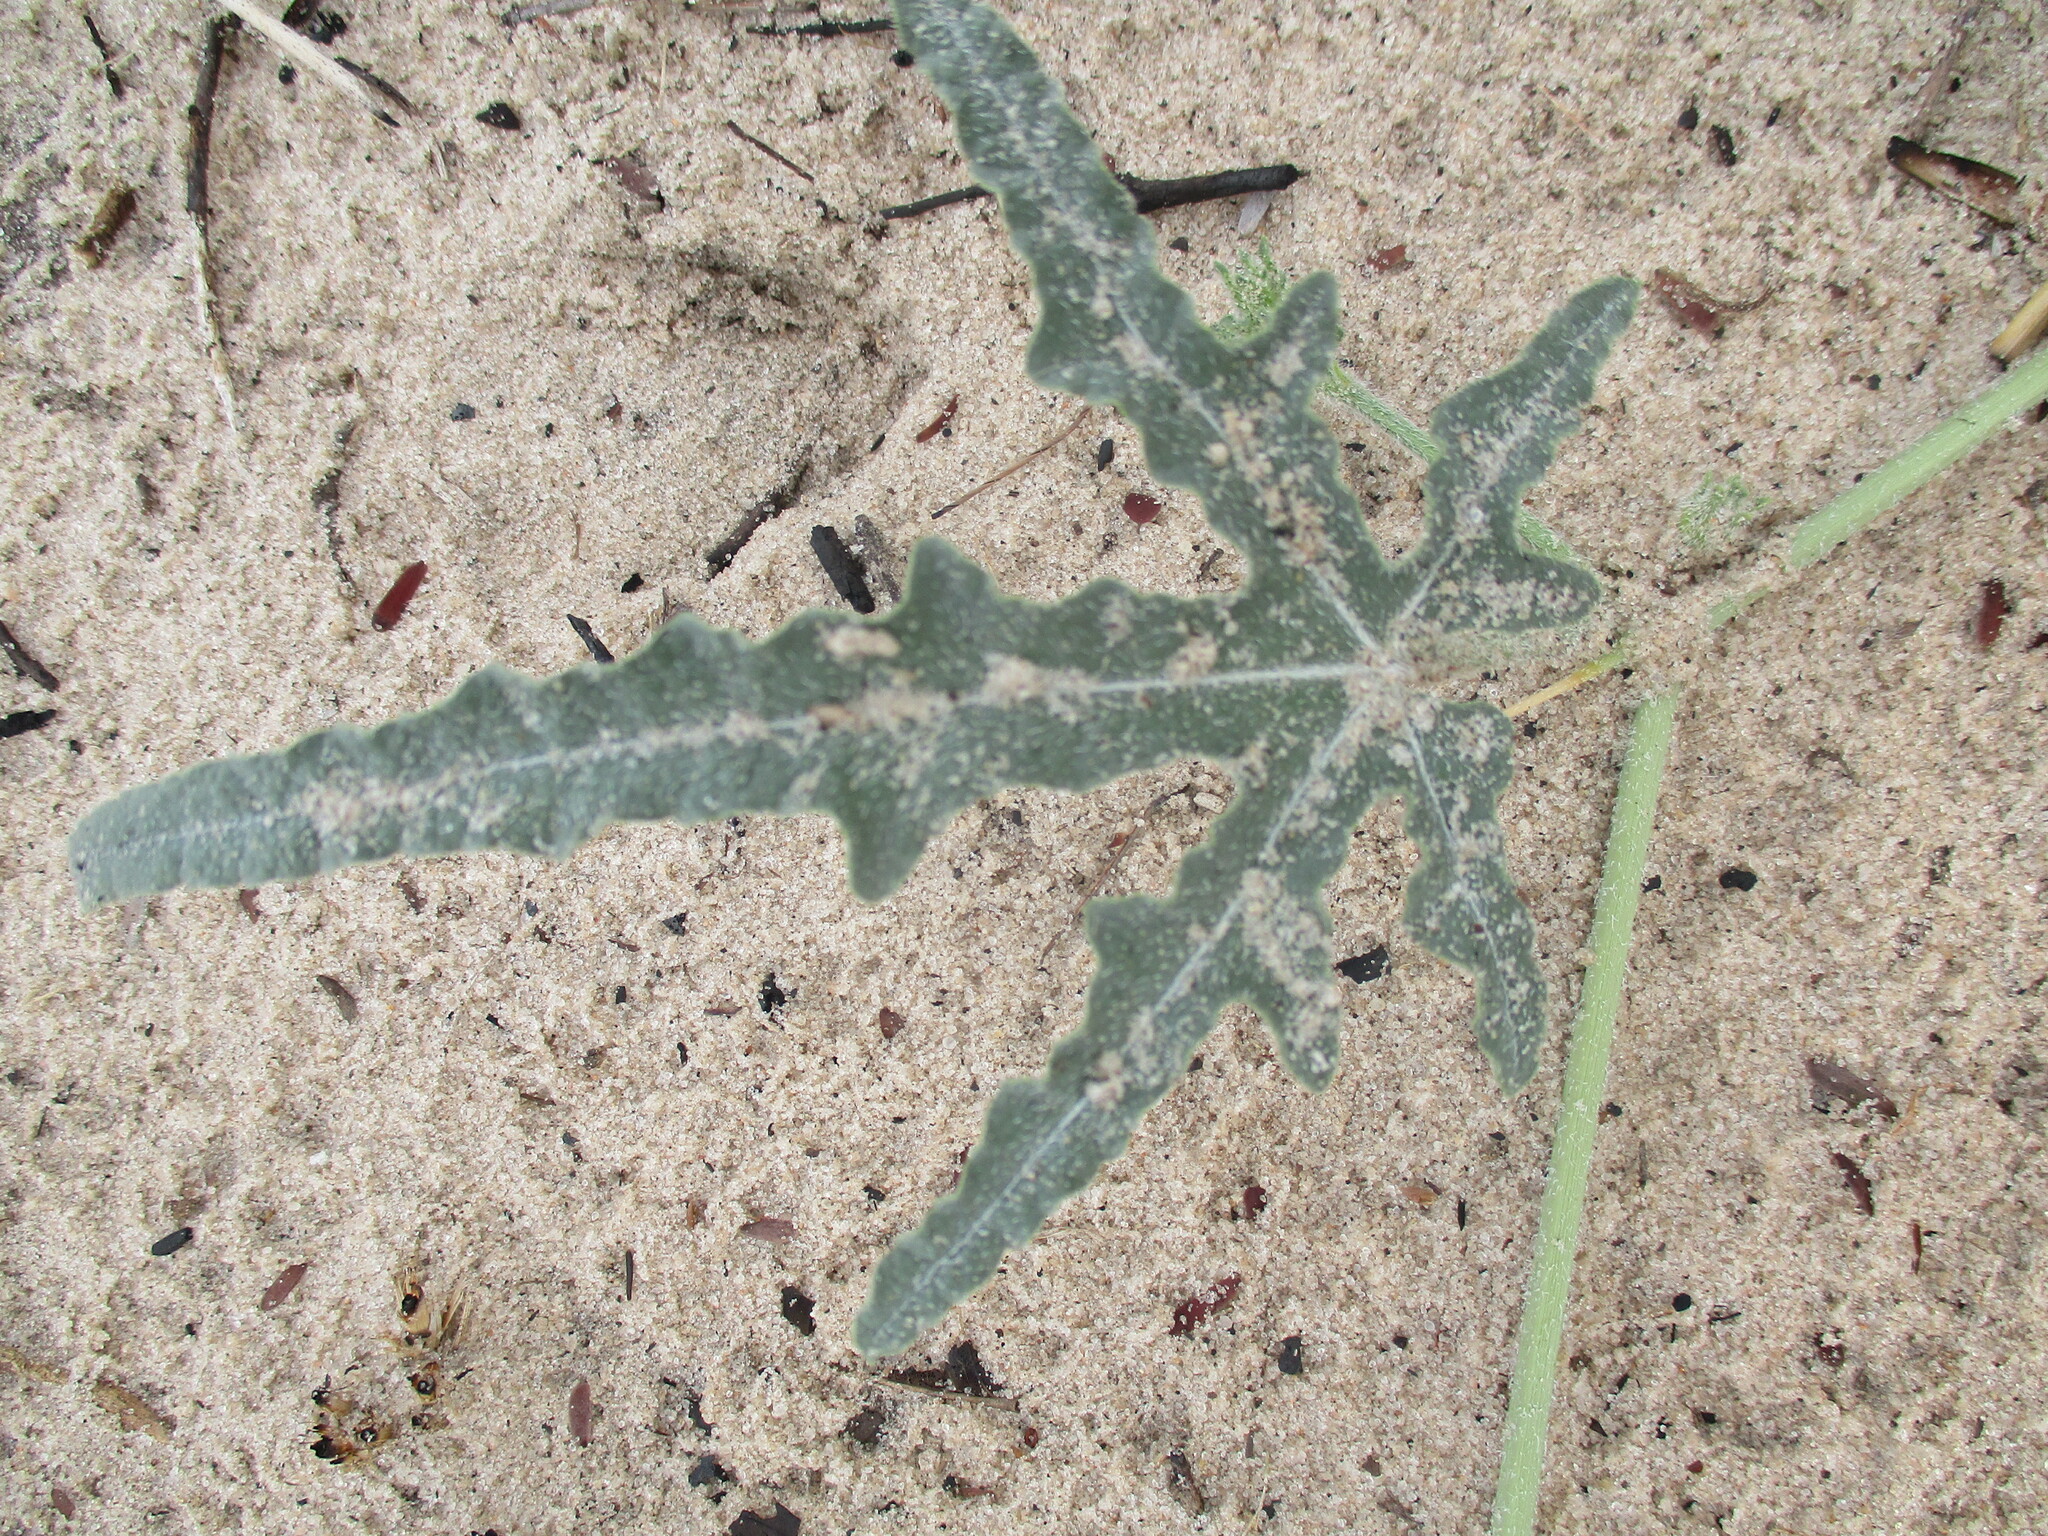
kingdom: Plantae
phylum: Tracheophyta
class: Magnoliopsida
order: Cucurbitales
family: Cucurbitaceae
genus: Citrullus
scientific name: Citrullus naudinianus
